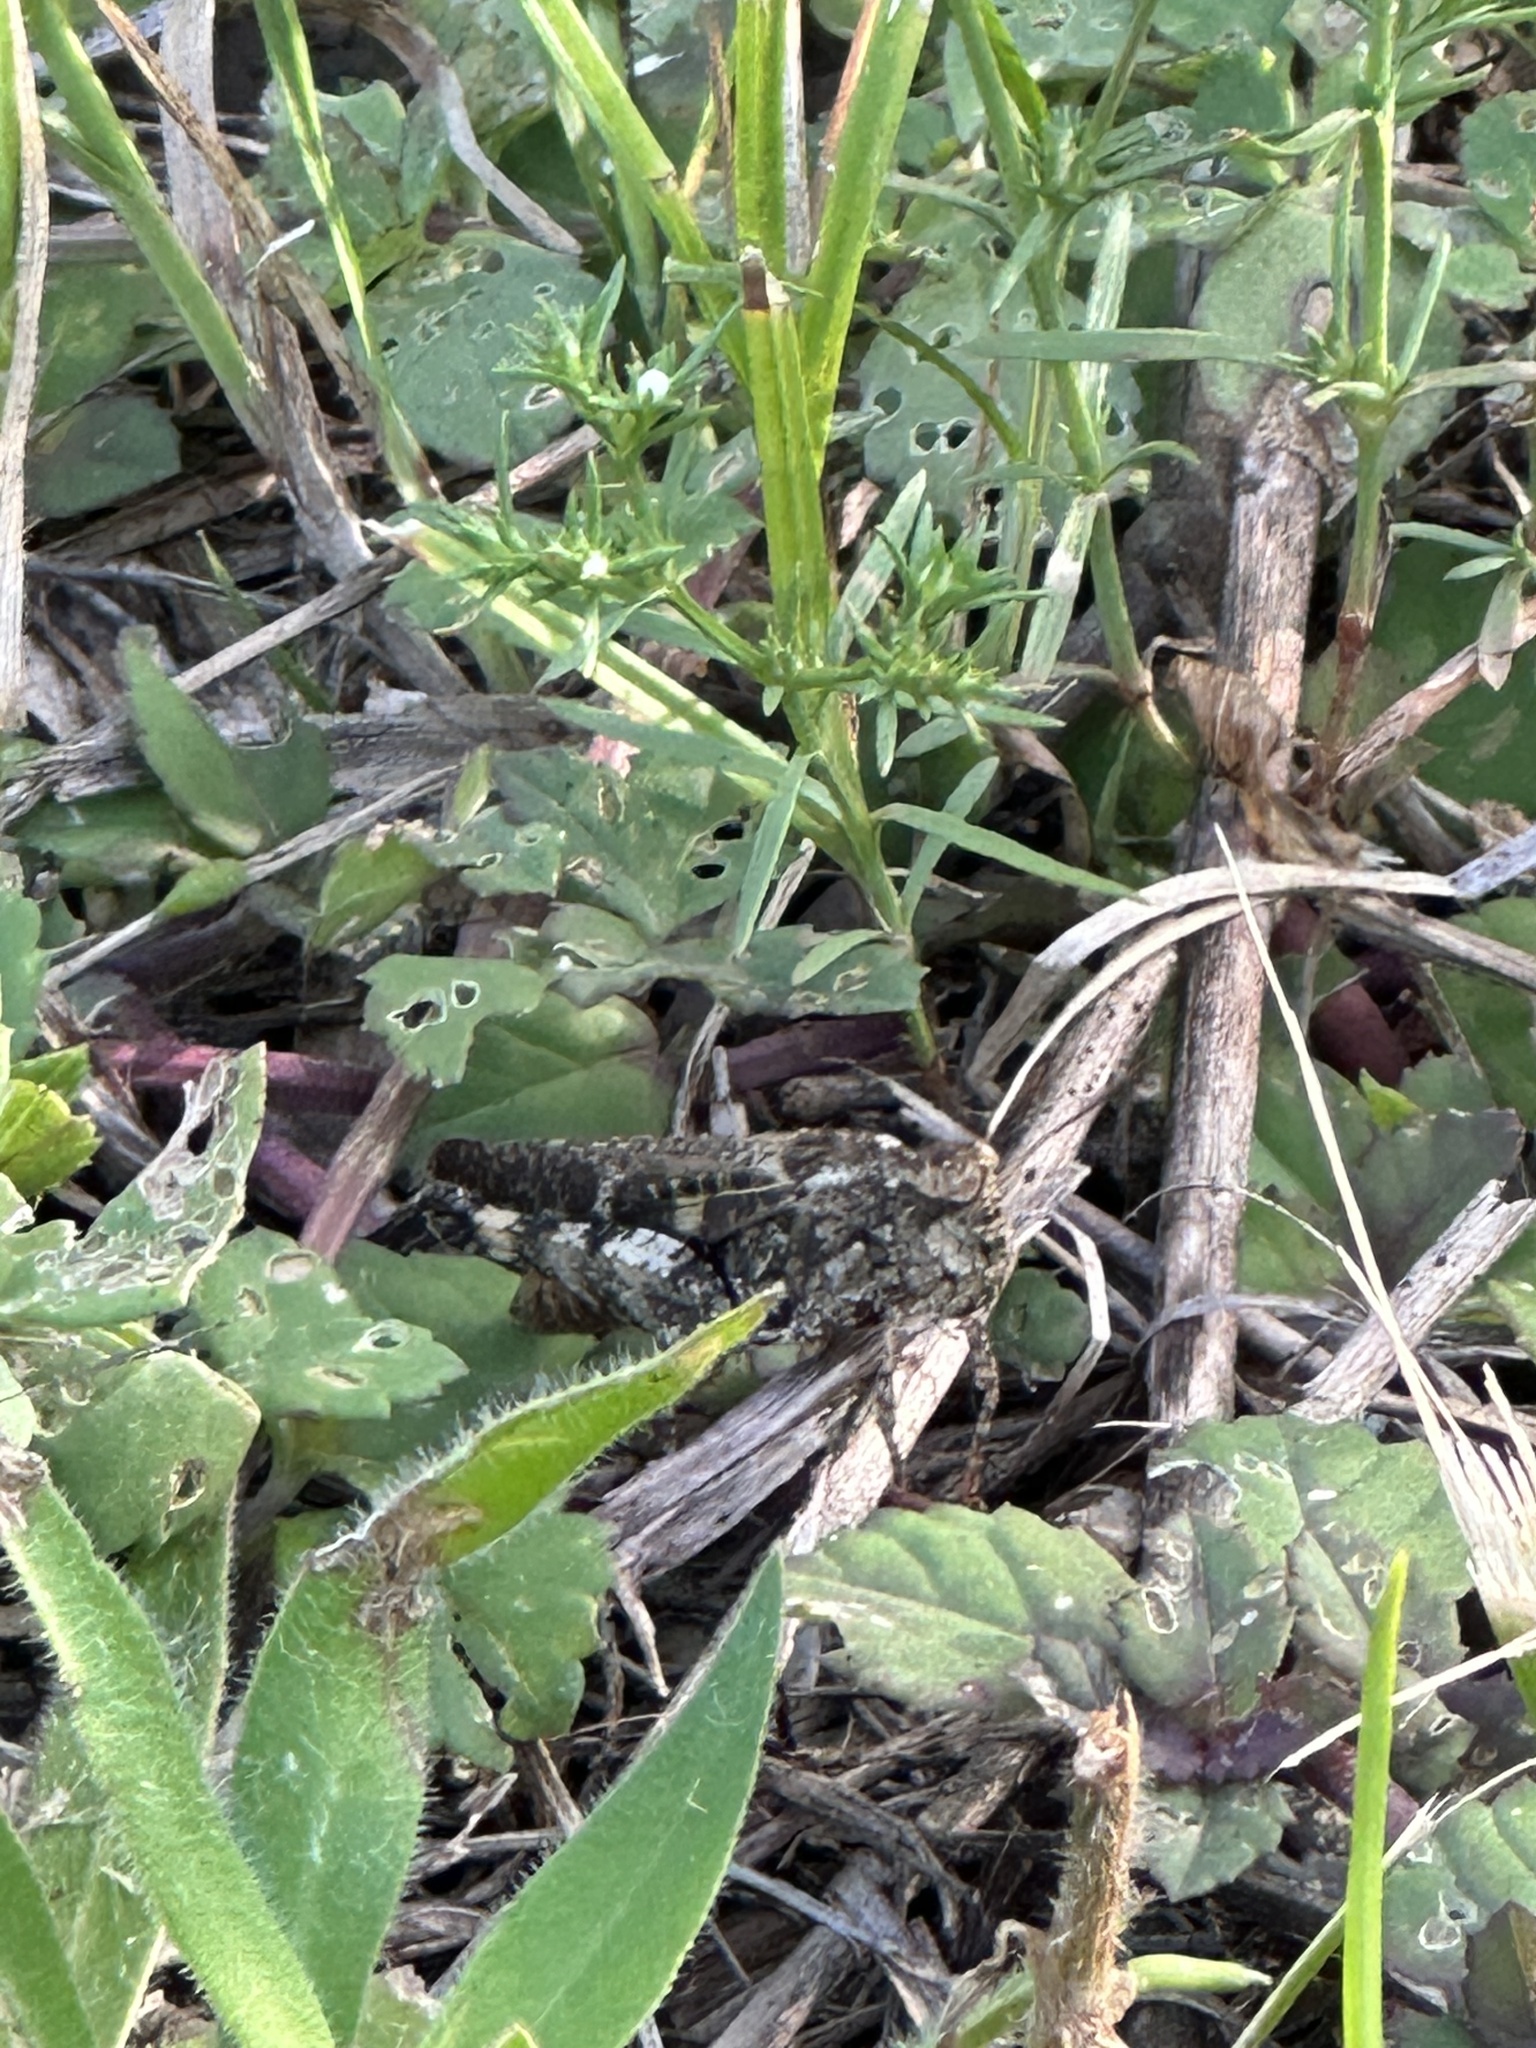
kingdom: Animalia
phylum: Arthropoda
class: Insecta
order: Orthoptera
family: Acrididae
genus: Chortophaga
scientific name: Chortophaga australior
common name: Southern green-striped grasshopper
